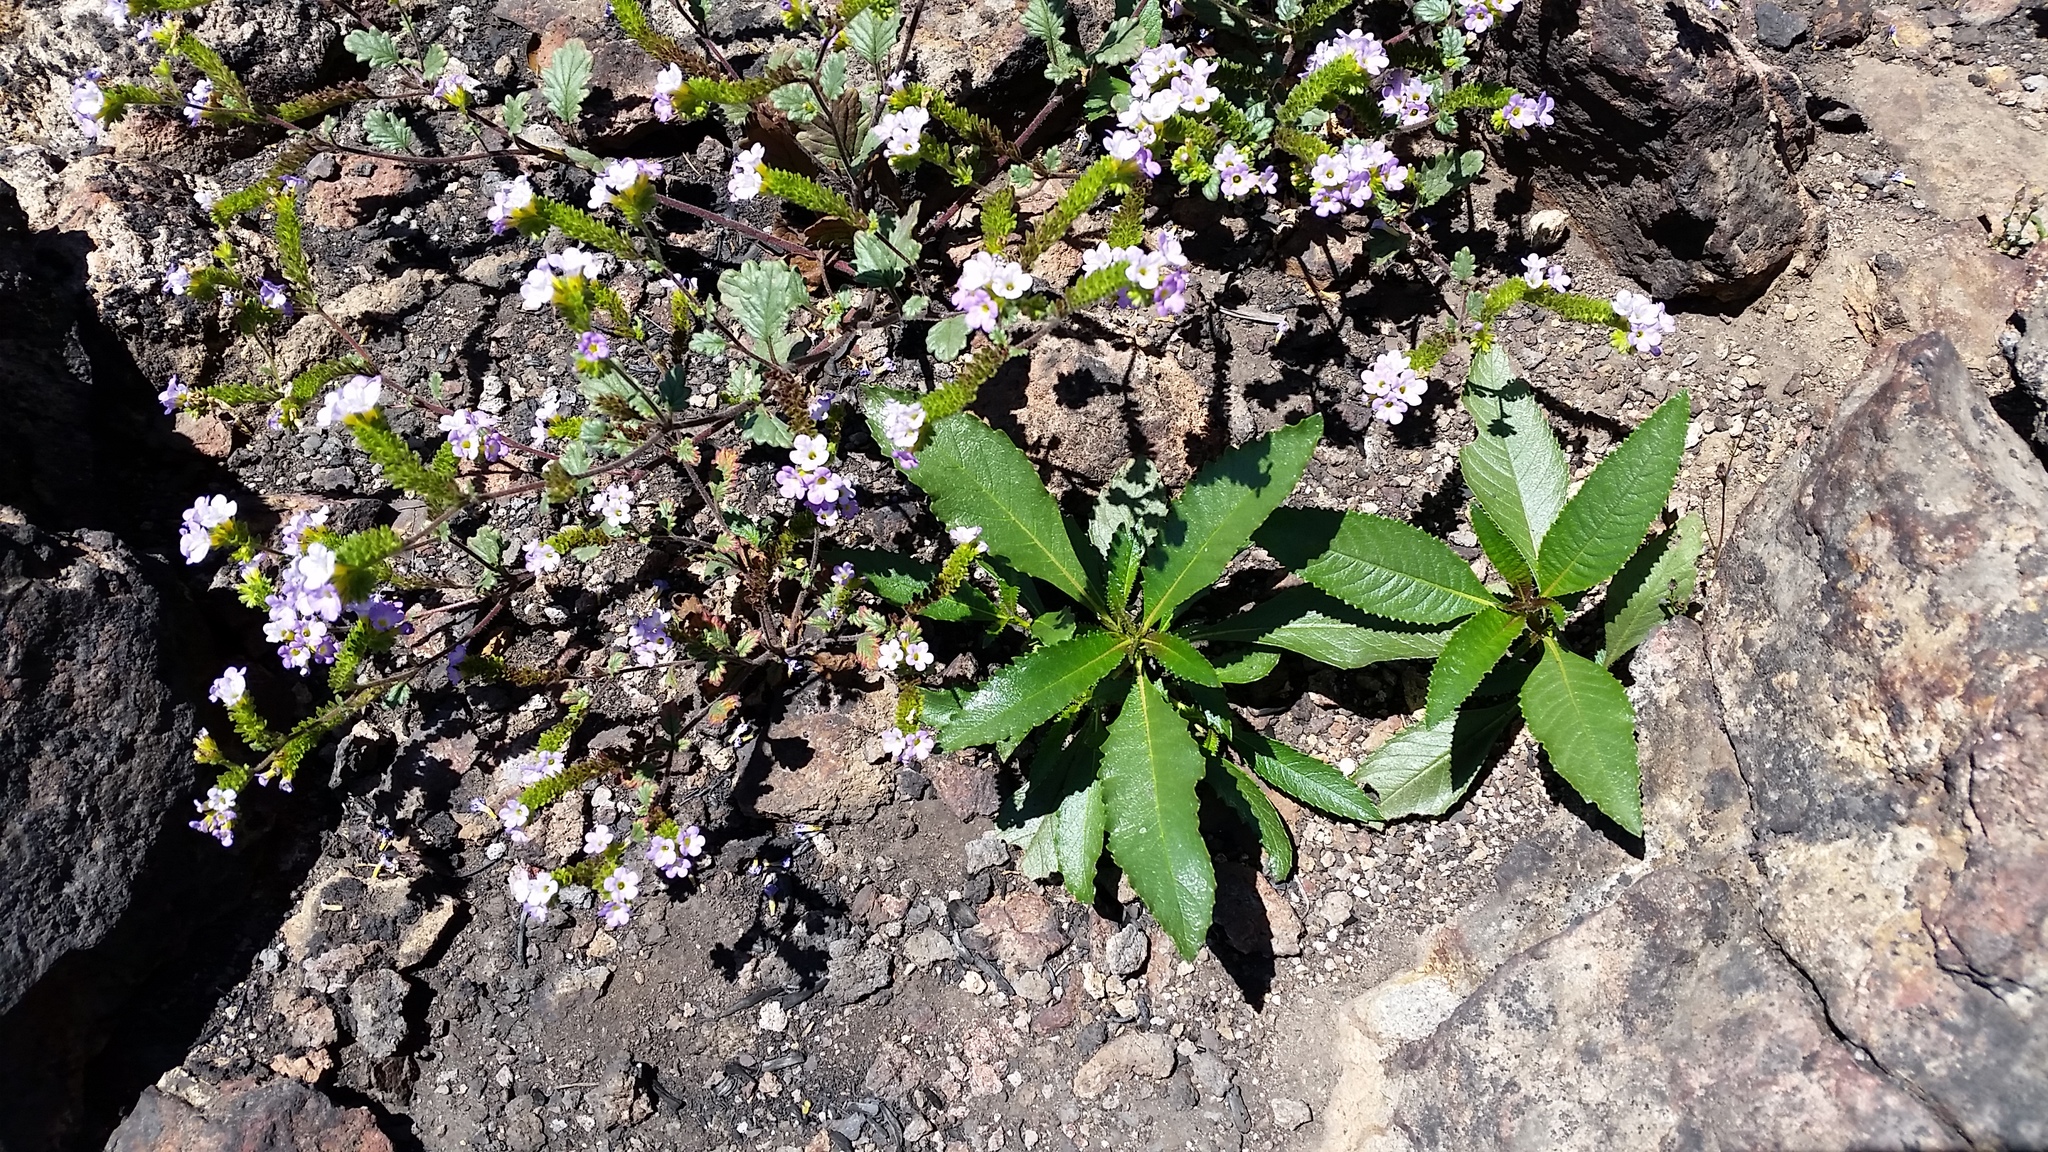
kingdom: Plantae
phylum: Tracheophyta
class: Magnoliopsida
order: Boraginales
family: Namaceae
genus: Eriodictyon
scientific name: Eriodictyon californicum
